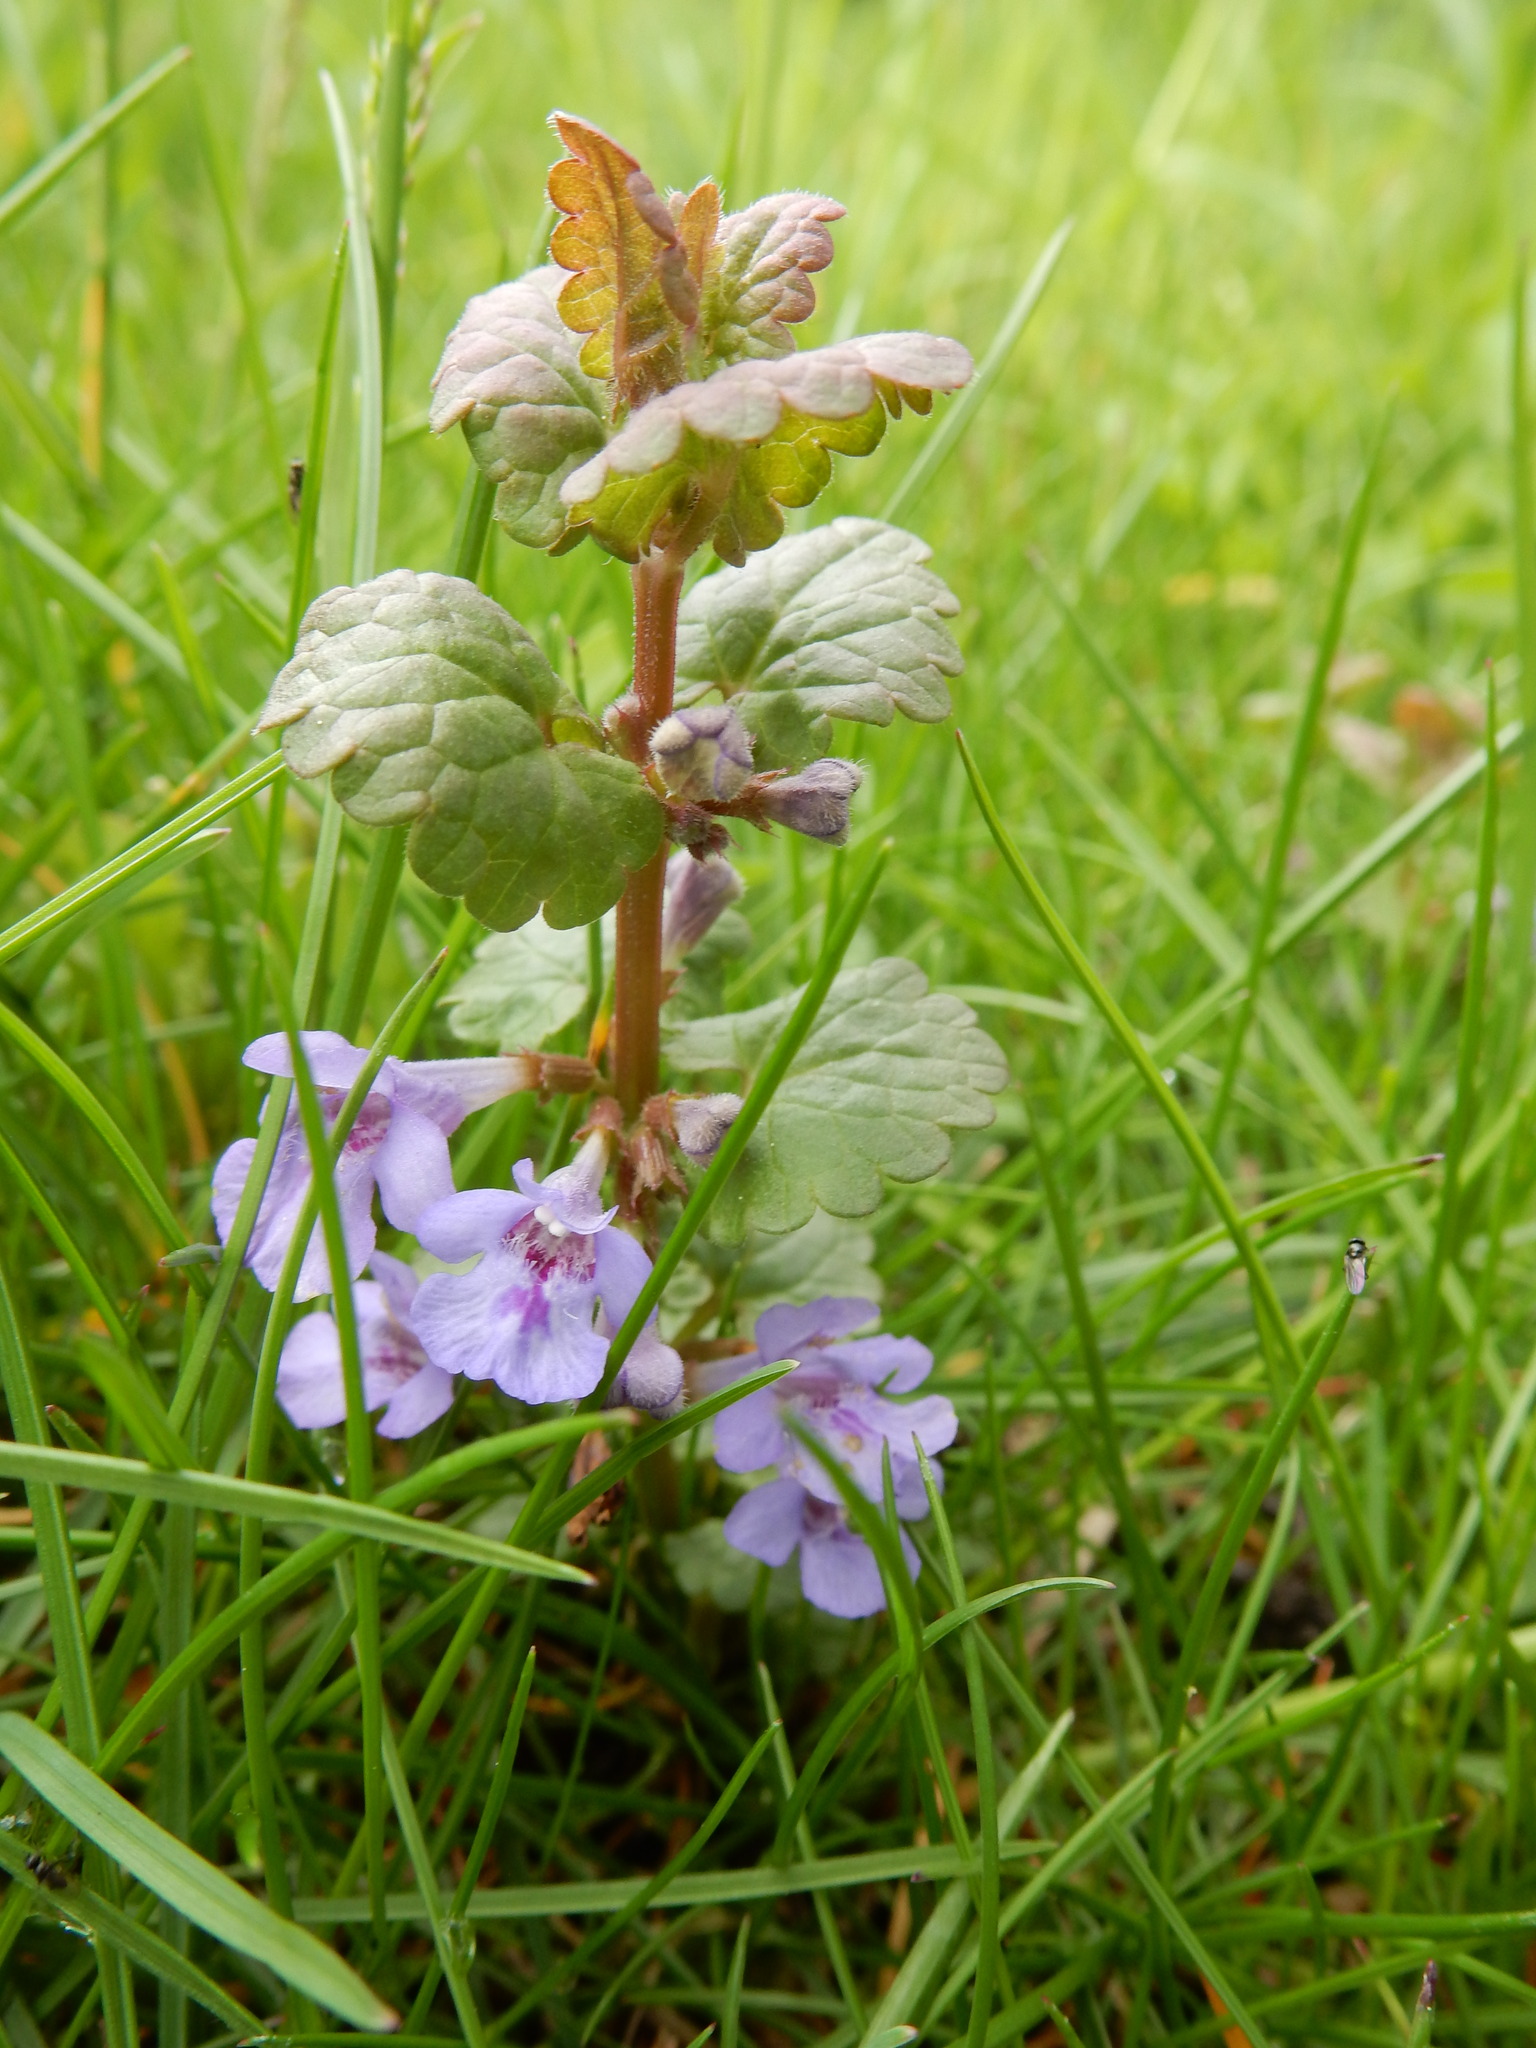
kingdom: Plantae
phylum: Tracheophyta
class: Magnoliopsida
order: Lamiales
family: Lamiaceae
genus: Glechoma
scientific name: Glechoma hederacea
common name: Ground ivy
